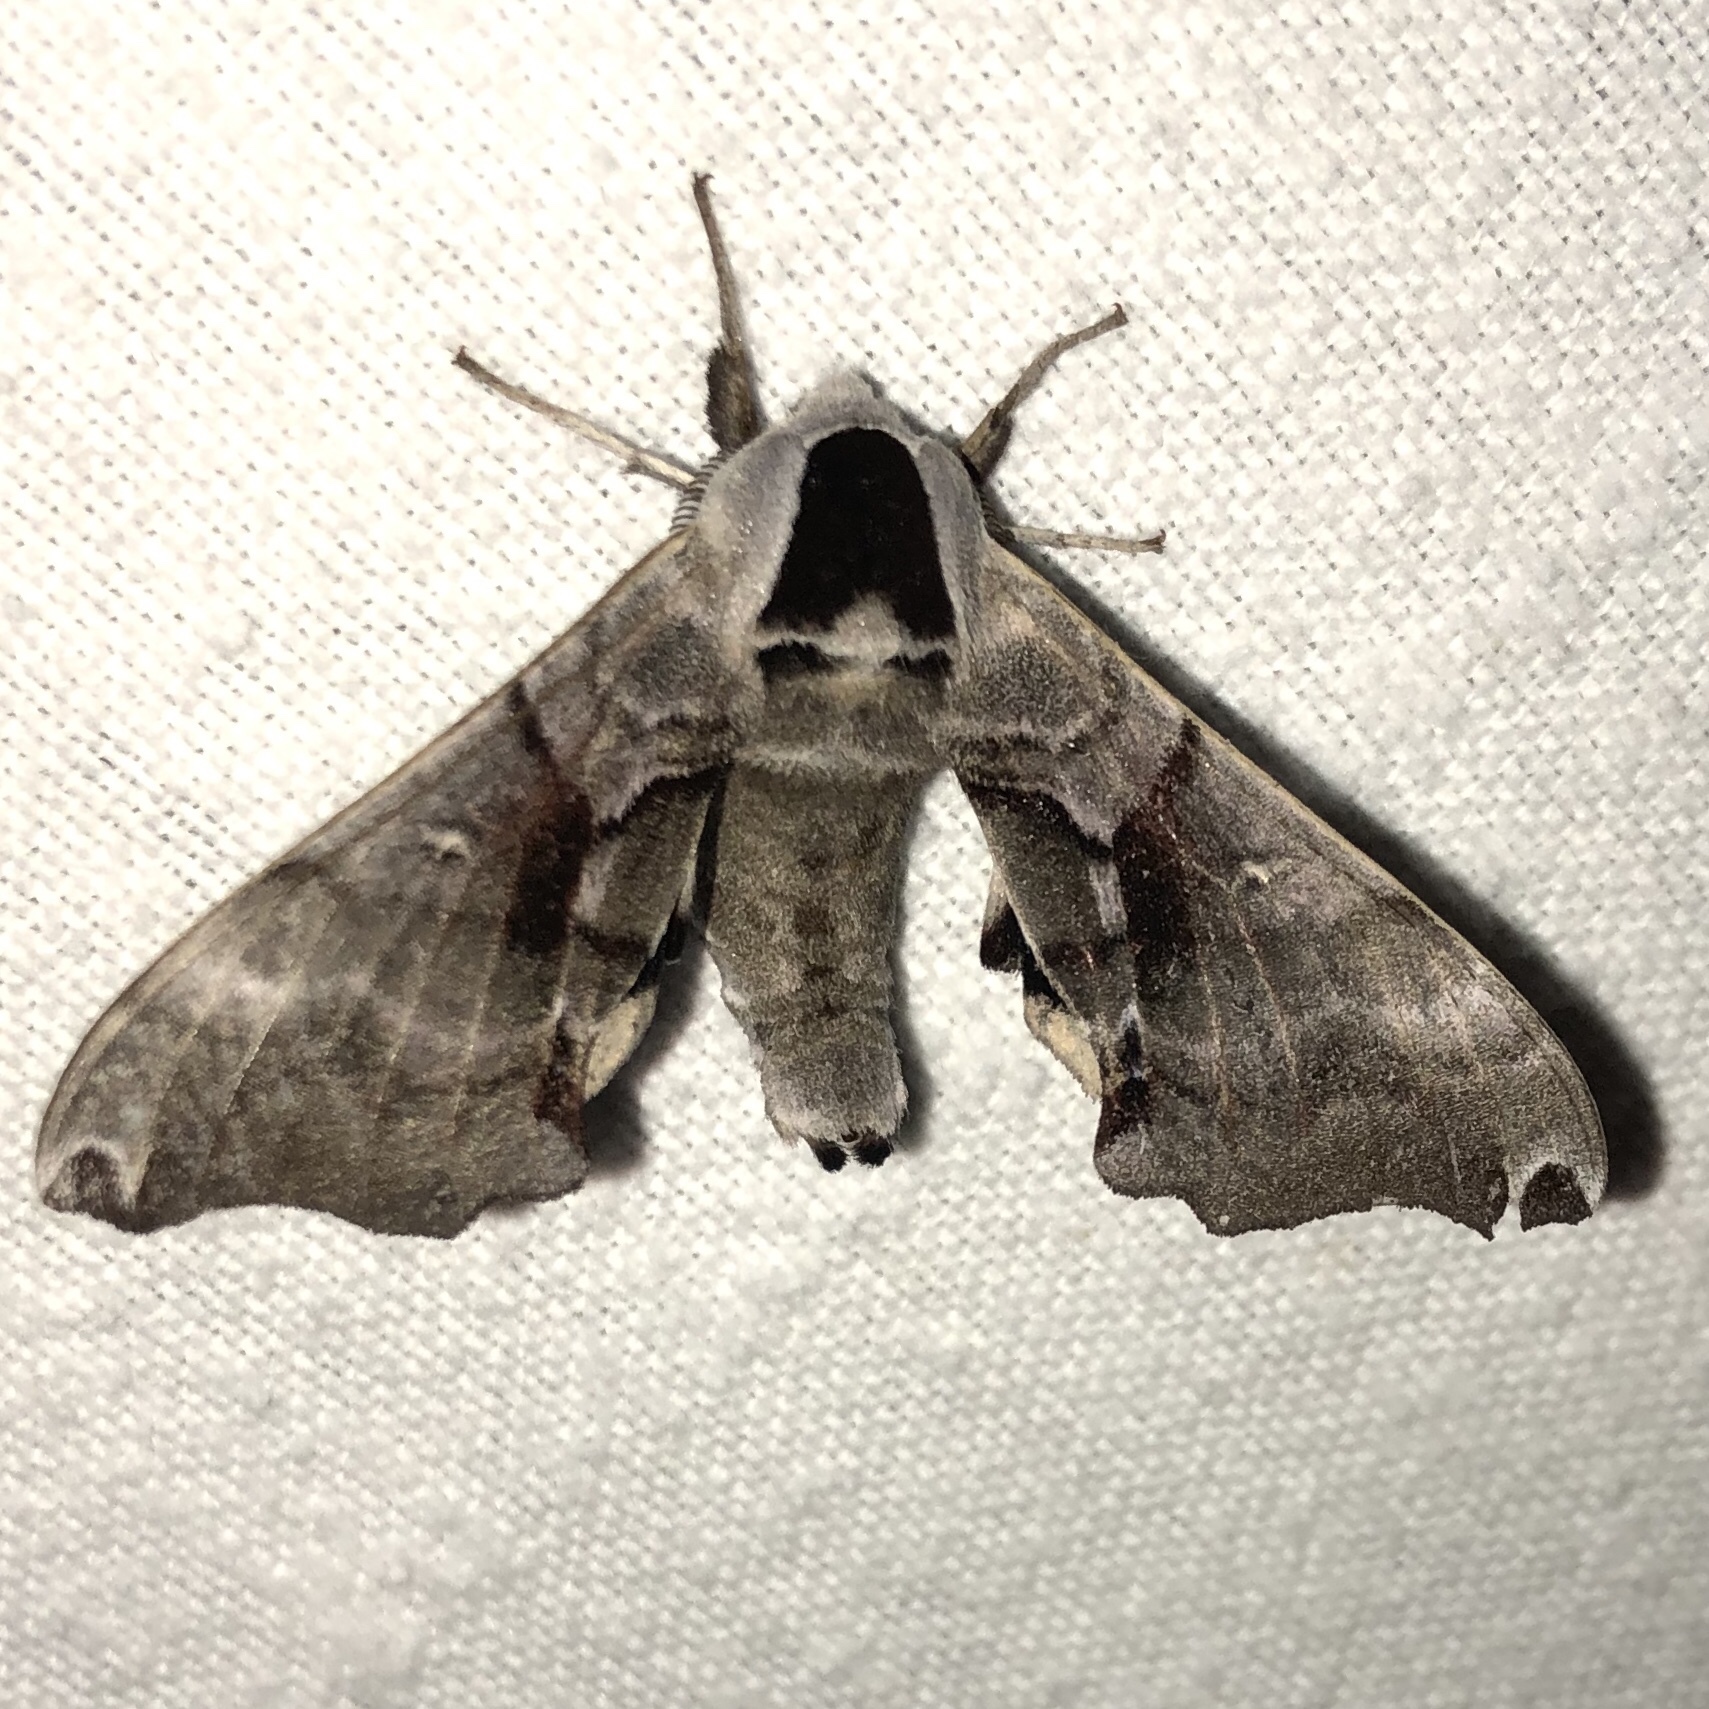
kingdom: Animalia
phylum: Arthropoda
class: Insecta
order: Lepidoptera
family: Sphingidae
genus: Smerinthus
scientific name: Smerinthus jamaicensis
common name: Twin spotted sphinx
